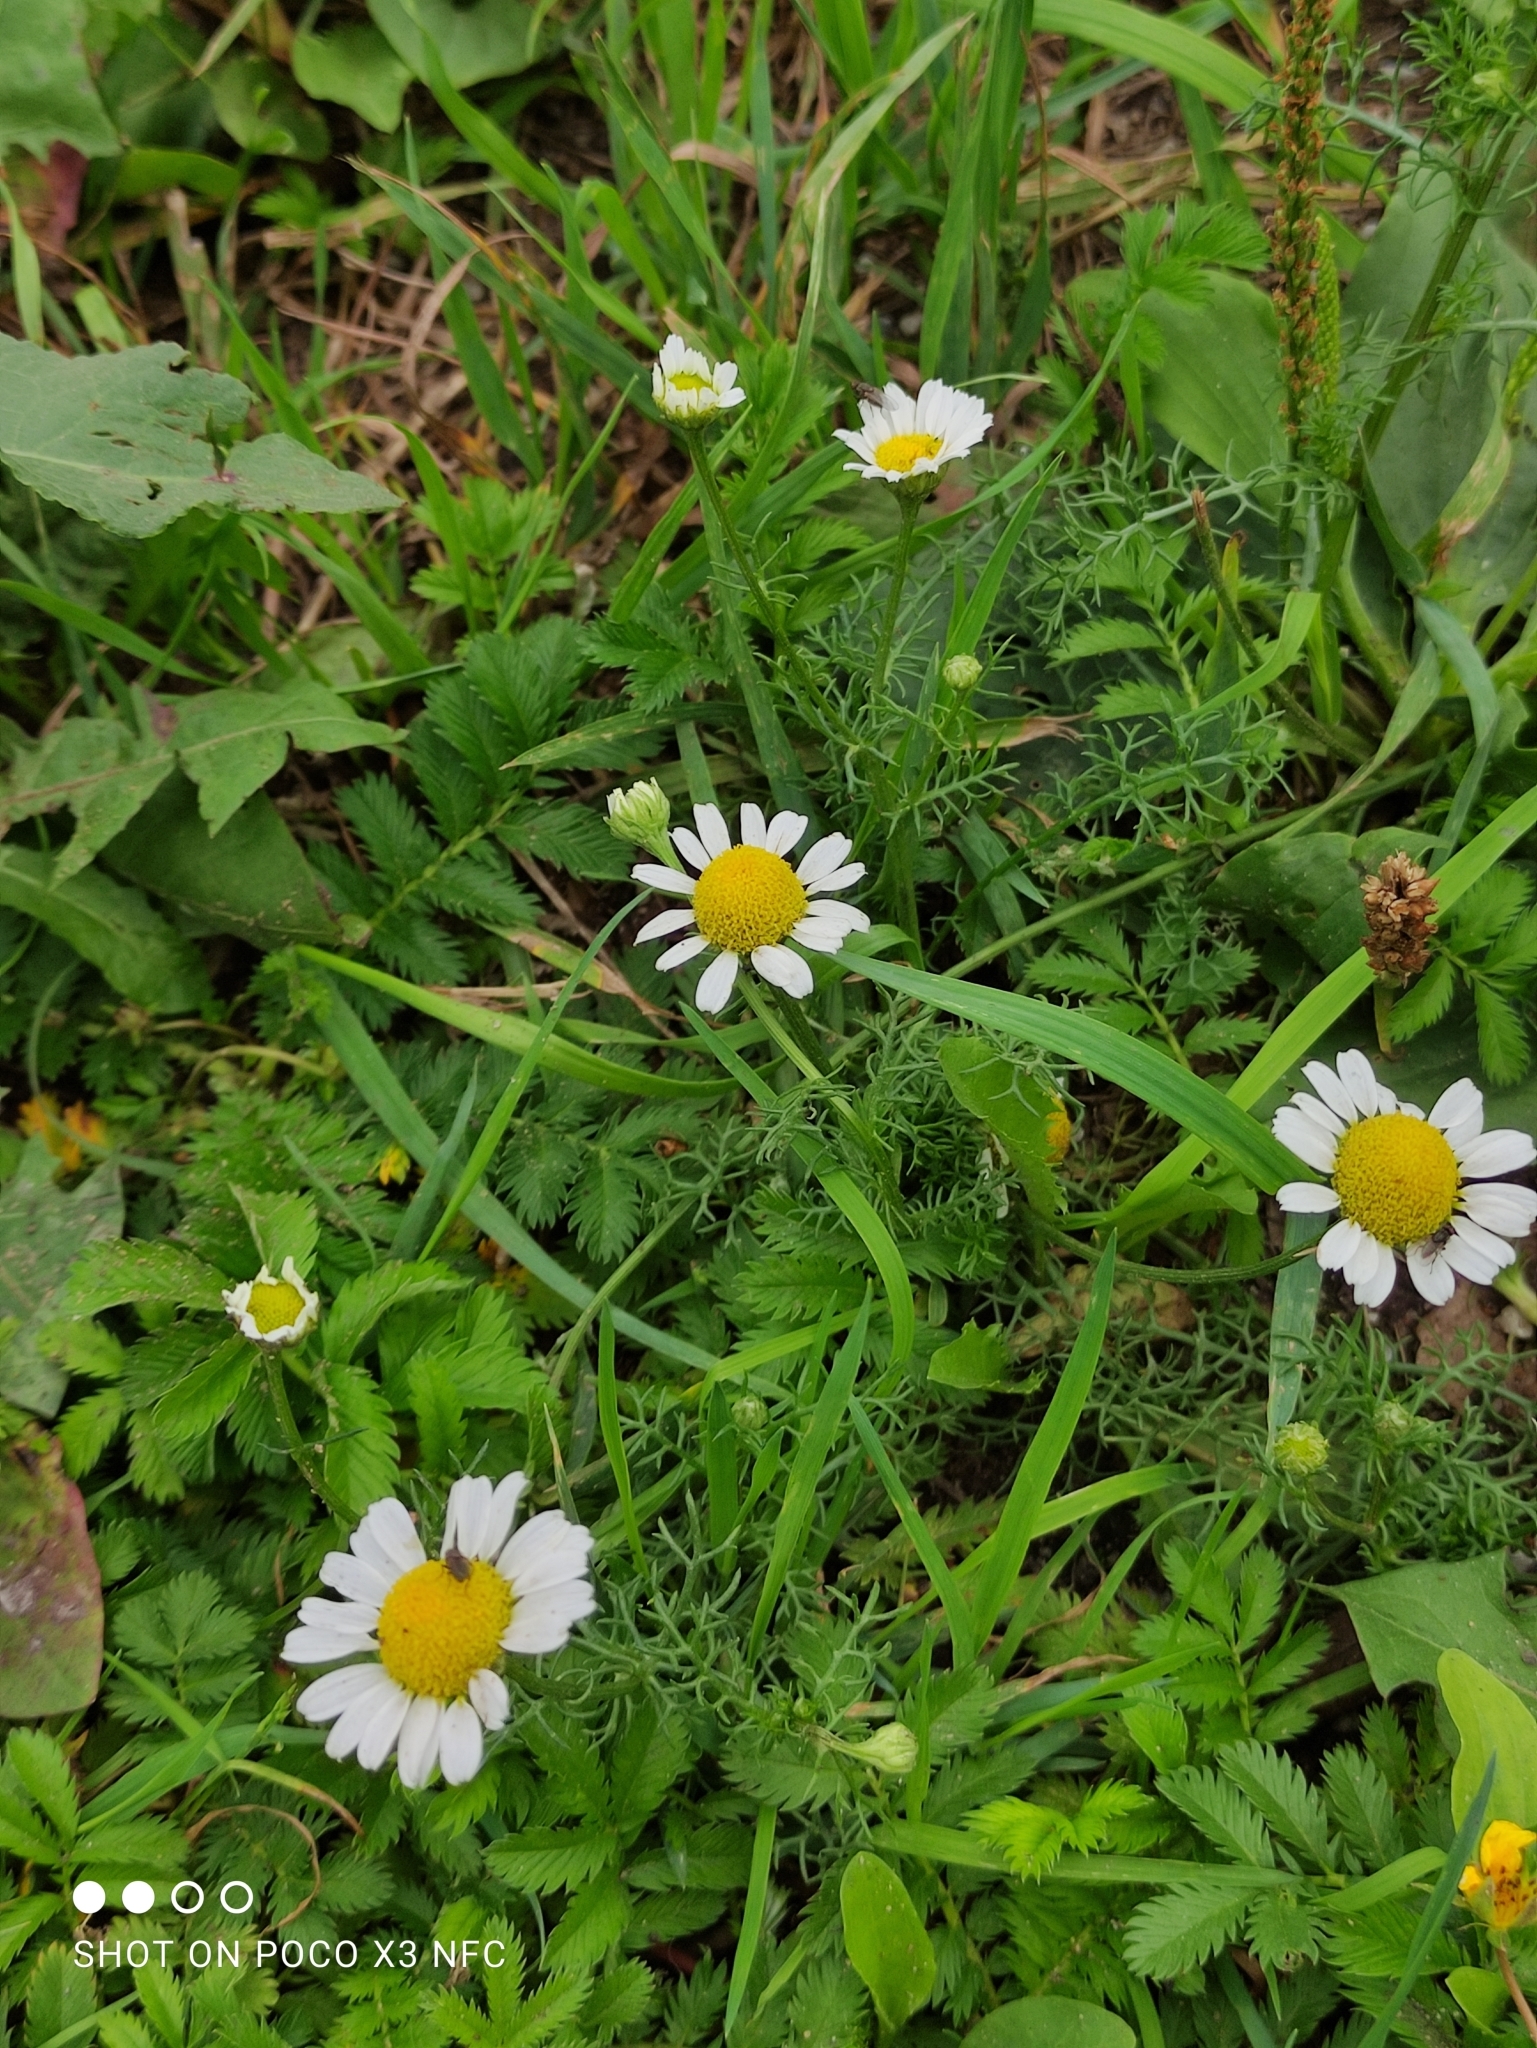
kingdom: Plantae
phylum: Tracheophyta
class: Magnoliopsida
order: Asterales
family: Asteraceae
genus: Tripleurospermum
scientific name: Tripleurospermum inodorum
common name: Scentless mayweed
